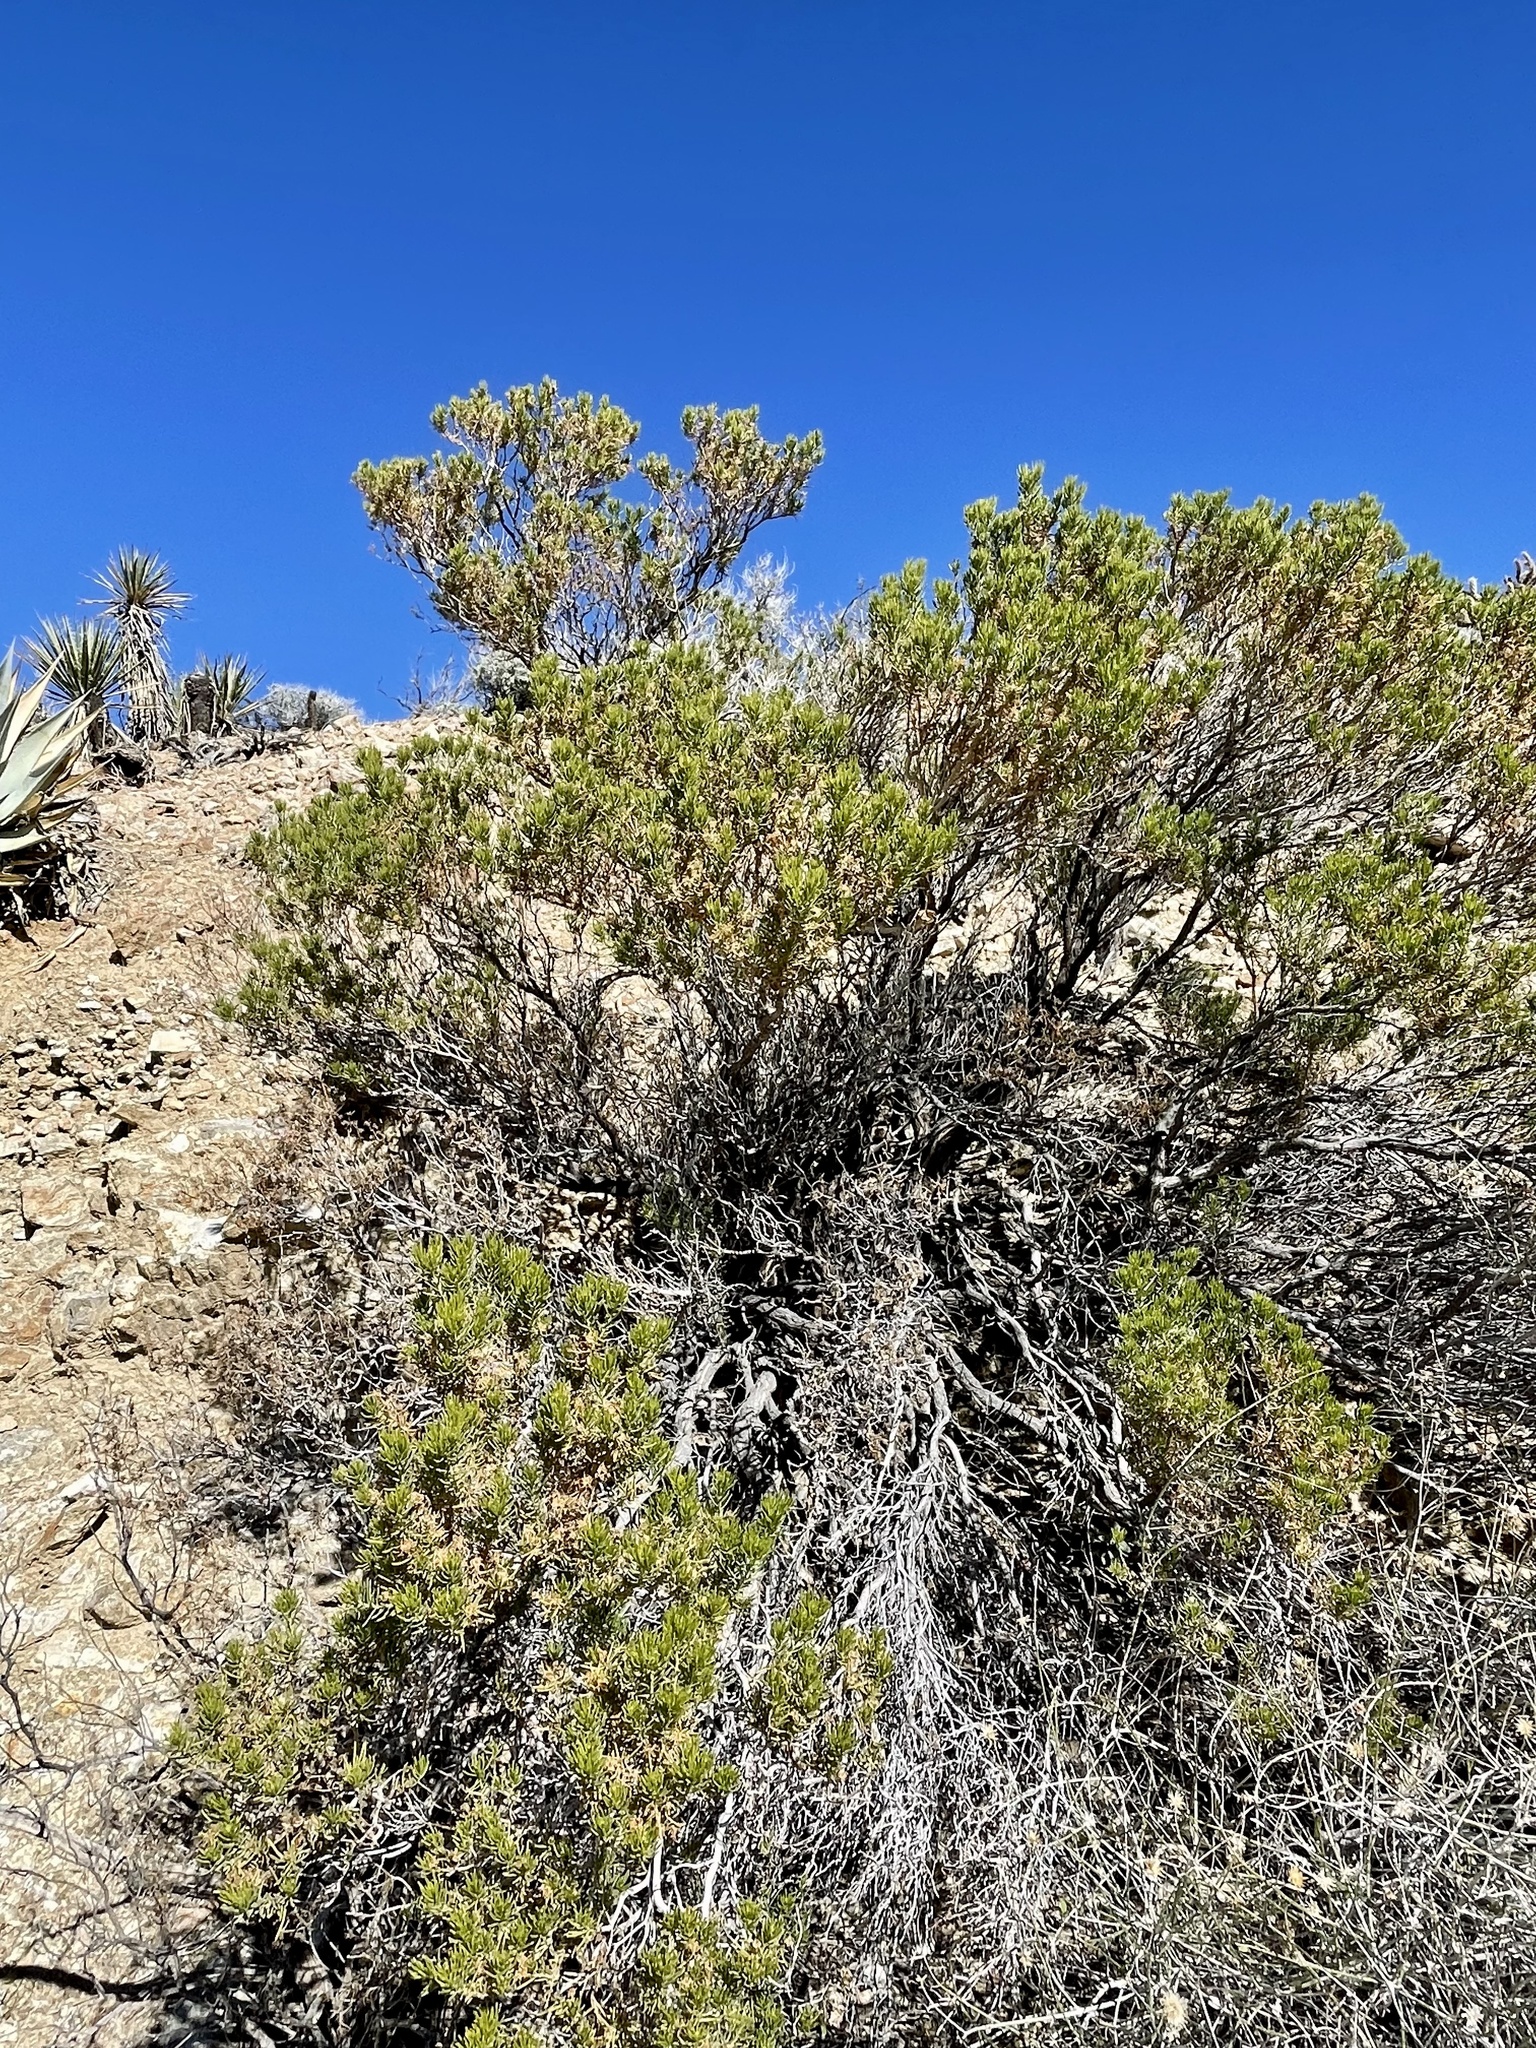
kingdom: Plantae
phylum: Tracheophyta
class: Magnoliopsida
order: Asterales
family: Asteraceae
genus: Peucephyllum
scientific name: Peucephyllum schottii
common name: Pygmy-cedar
